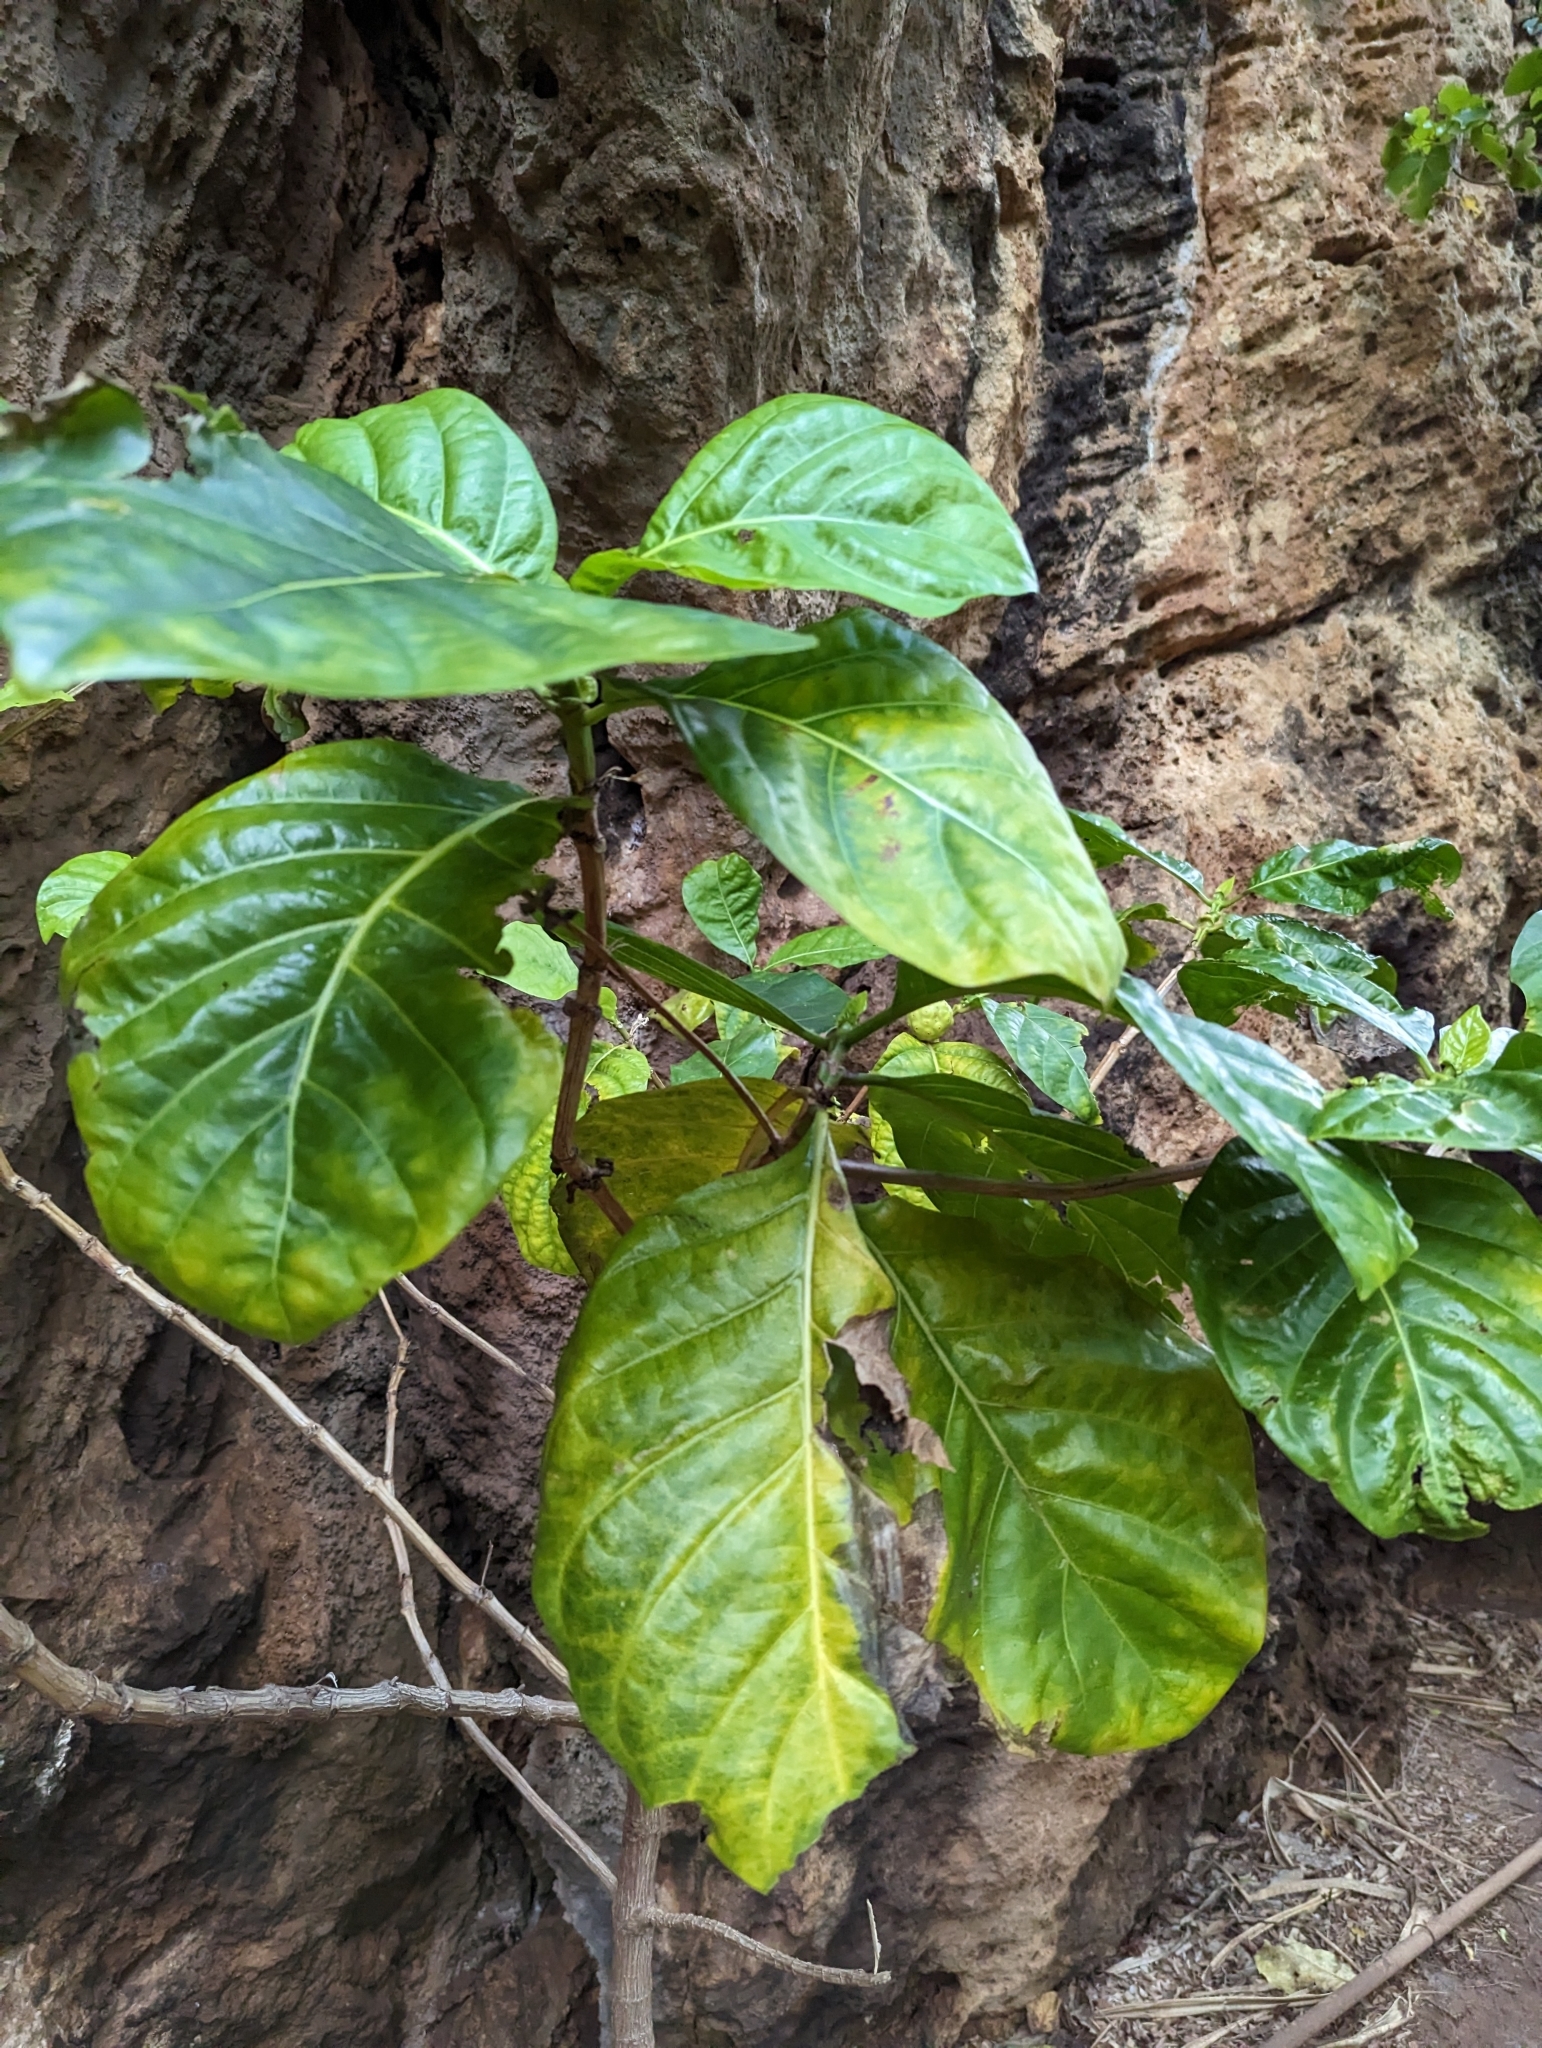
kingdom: Plantae
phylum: Tracheophyta
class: Magnoliopsida
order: Gentianales
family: Rubiaceae
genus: Morinda
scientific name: Morinda citrifolia
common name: Indian-mulberry
